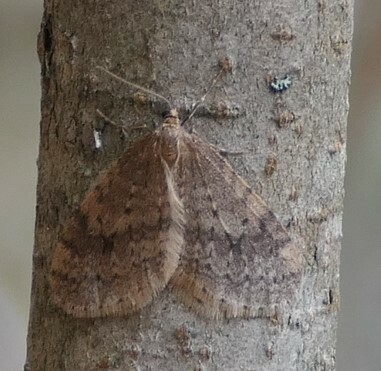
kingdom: Animalia
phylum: Arthropoda
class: Insecta
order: Lepidoptera
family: Geometridae
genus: Operophtera
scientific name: Operophtera bruceata
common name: Bruce spanworm
